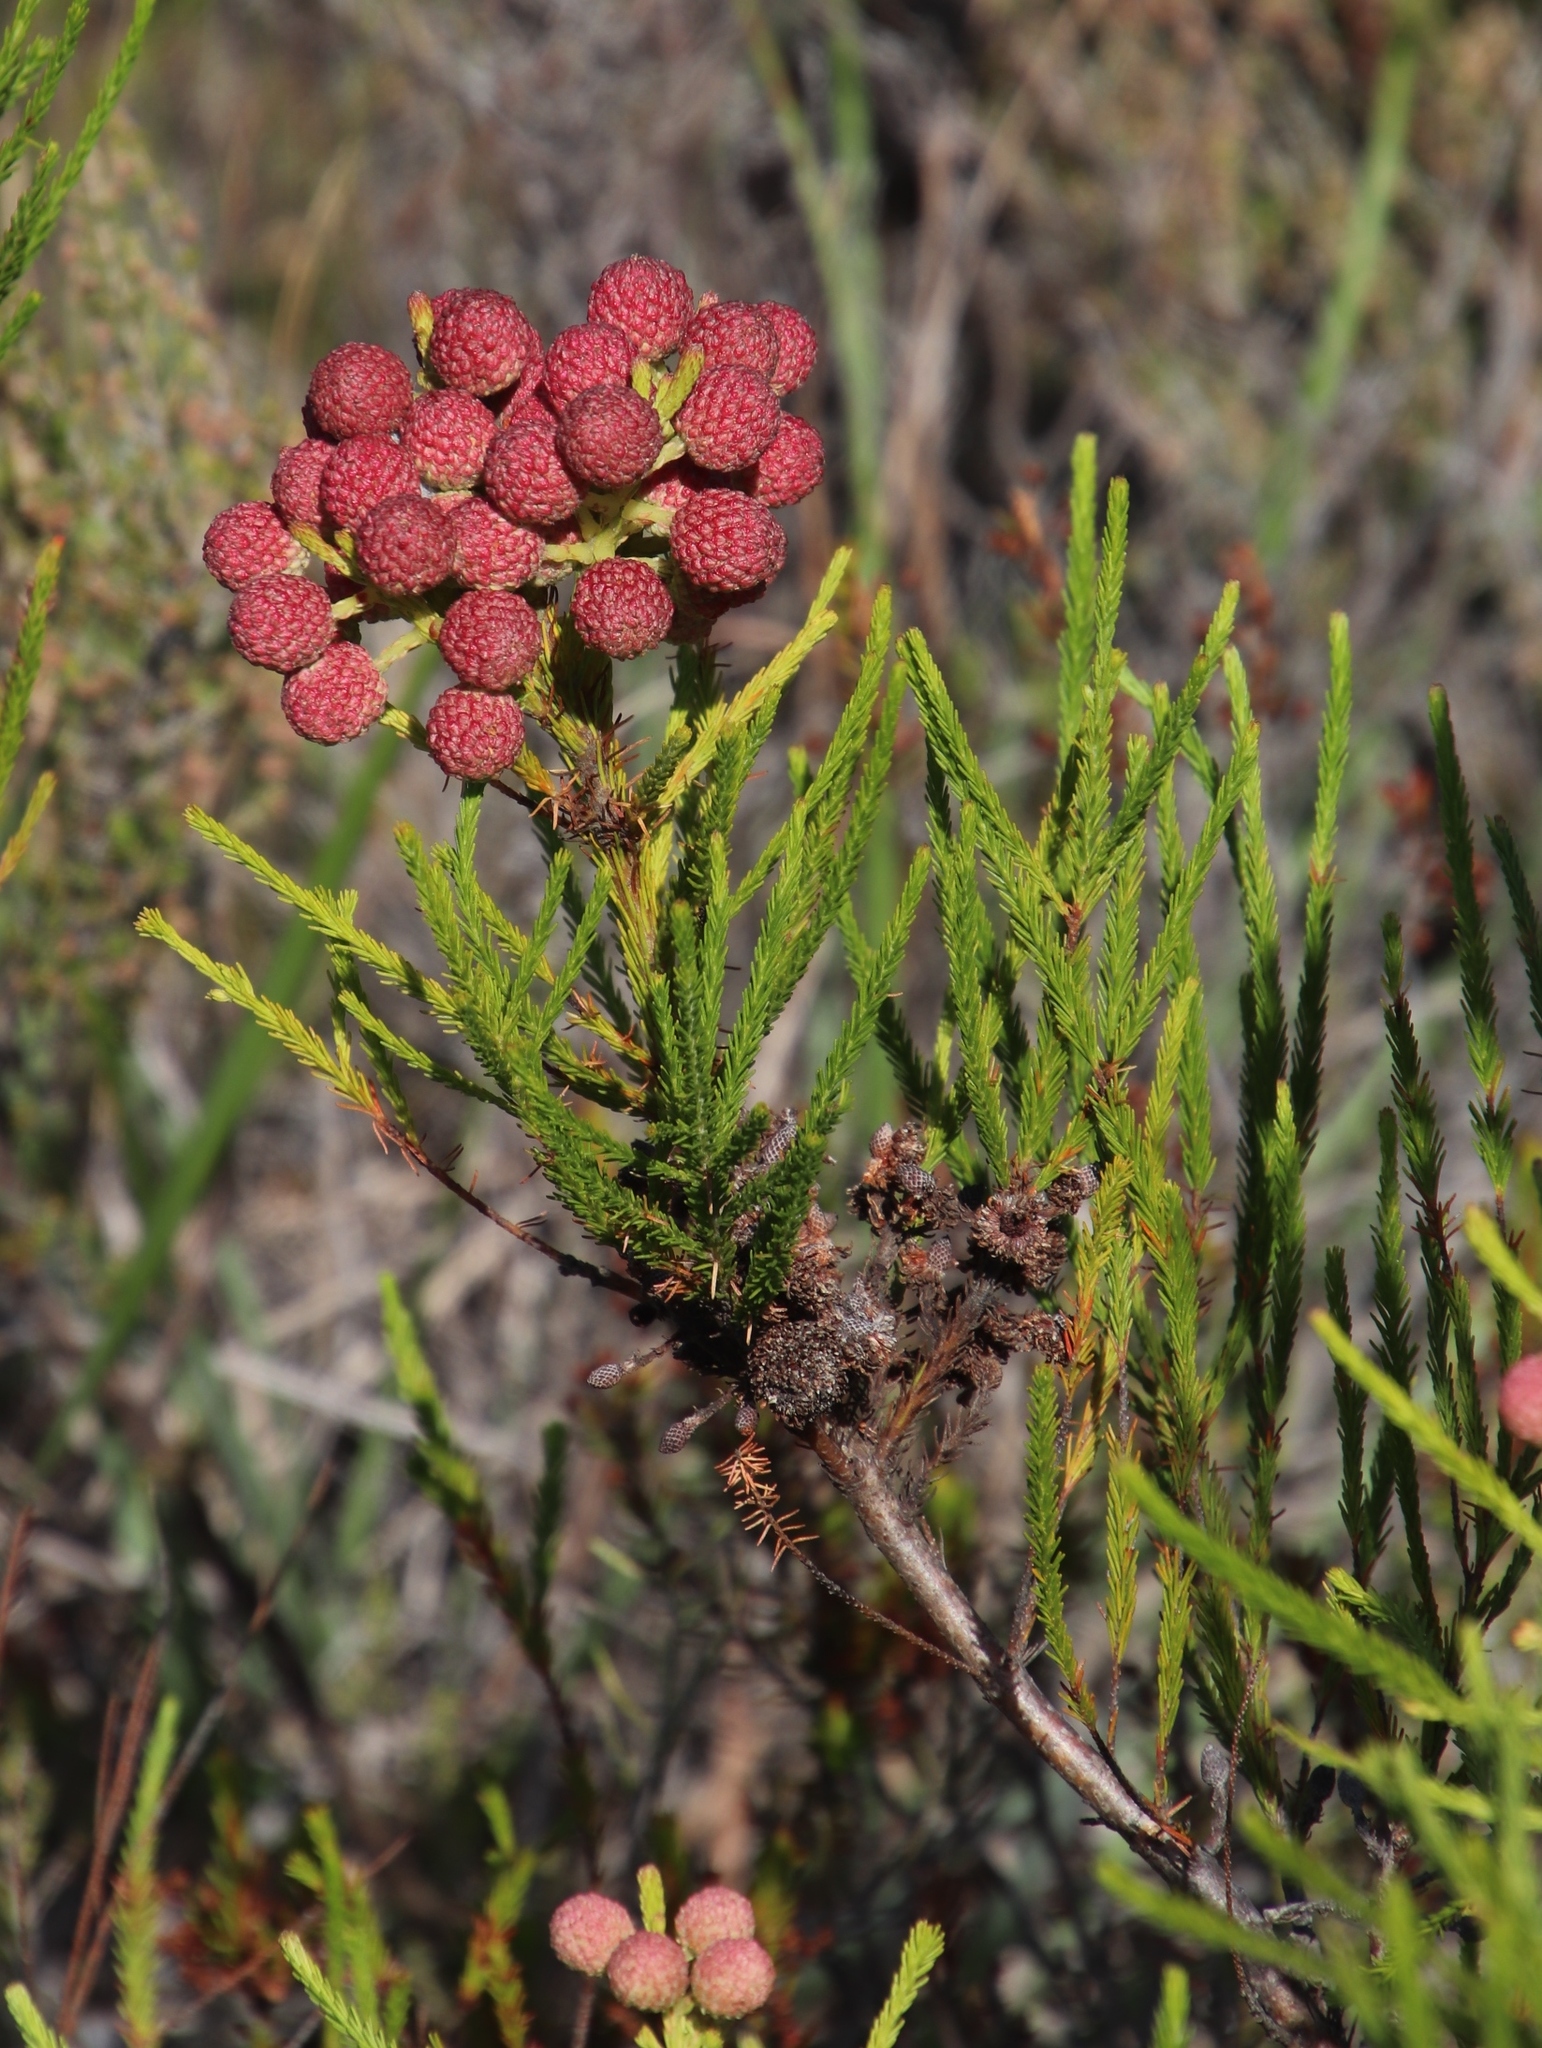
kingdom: Plantae
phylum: Tracheophyta
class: Magnoliopsida
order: Bruniales
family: Bruniaceae
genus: Berzelia
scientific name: Berzelia lanuginosa
